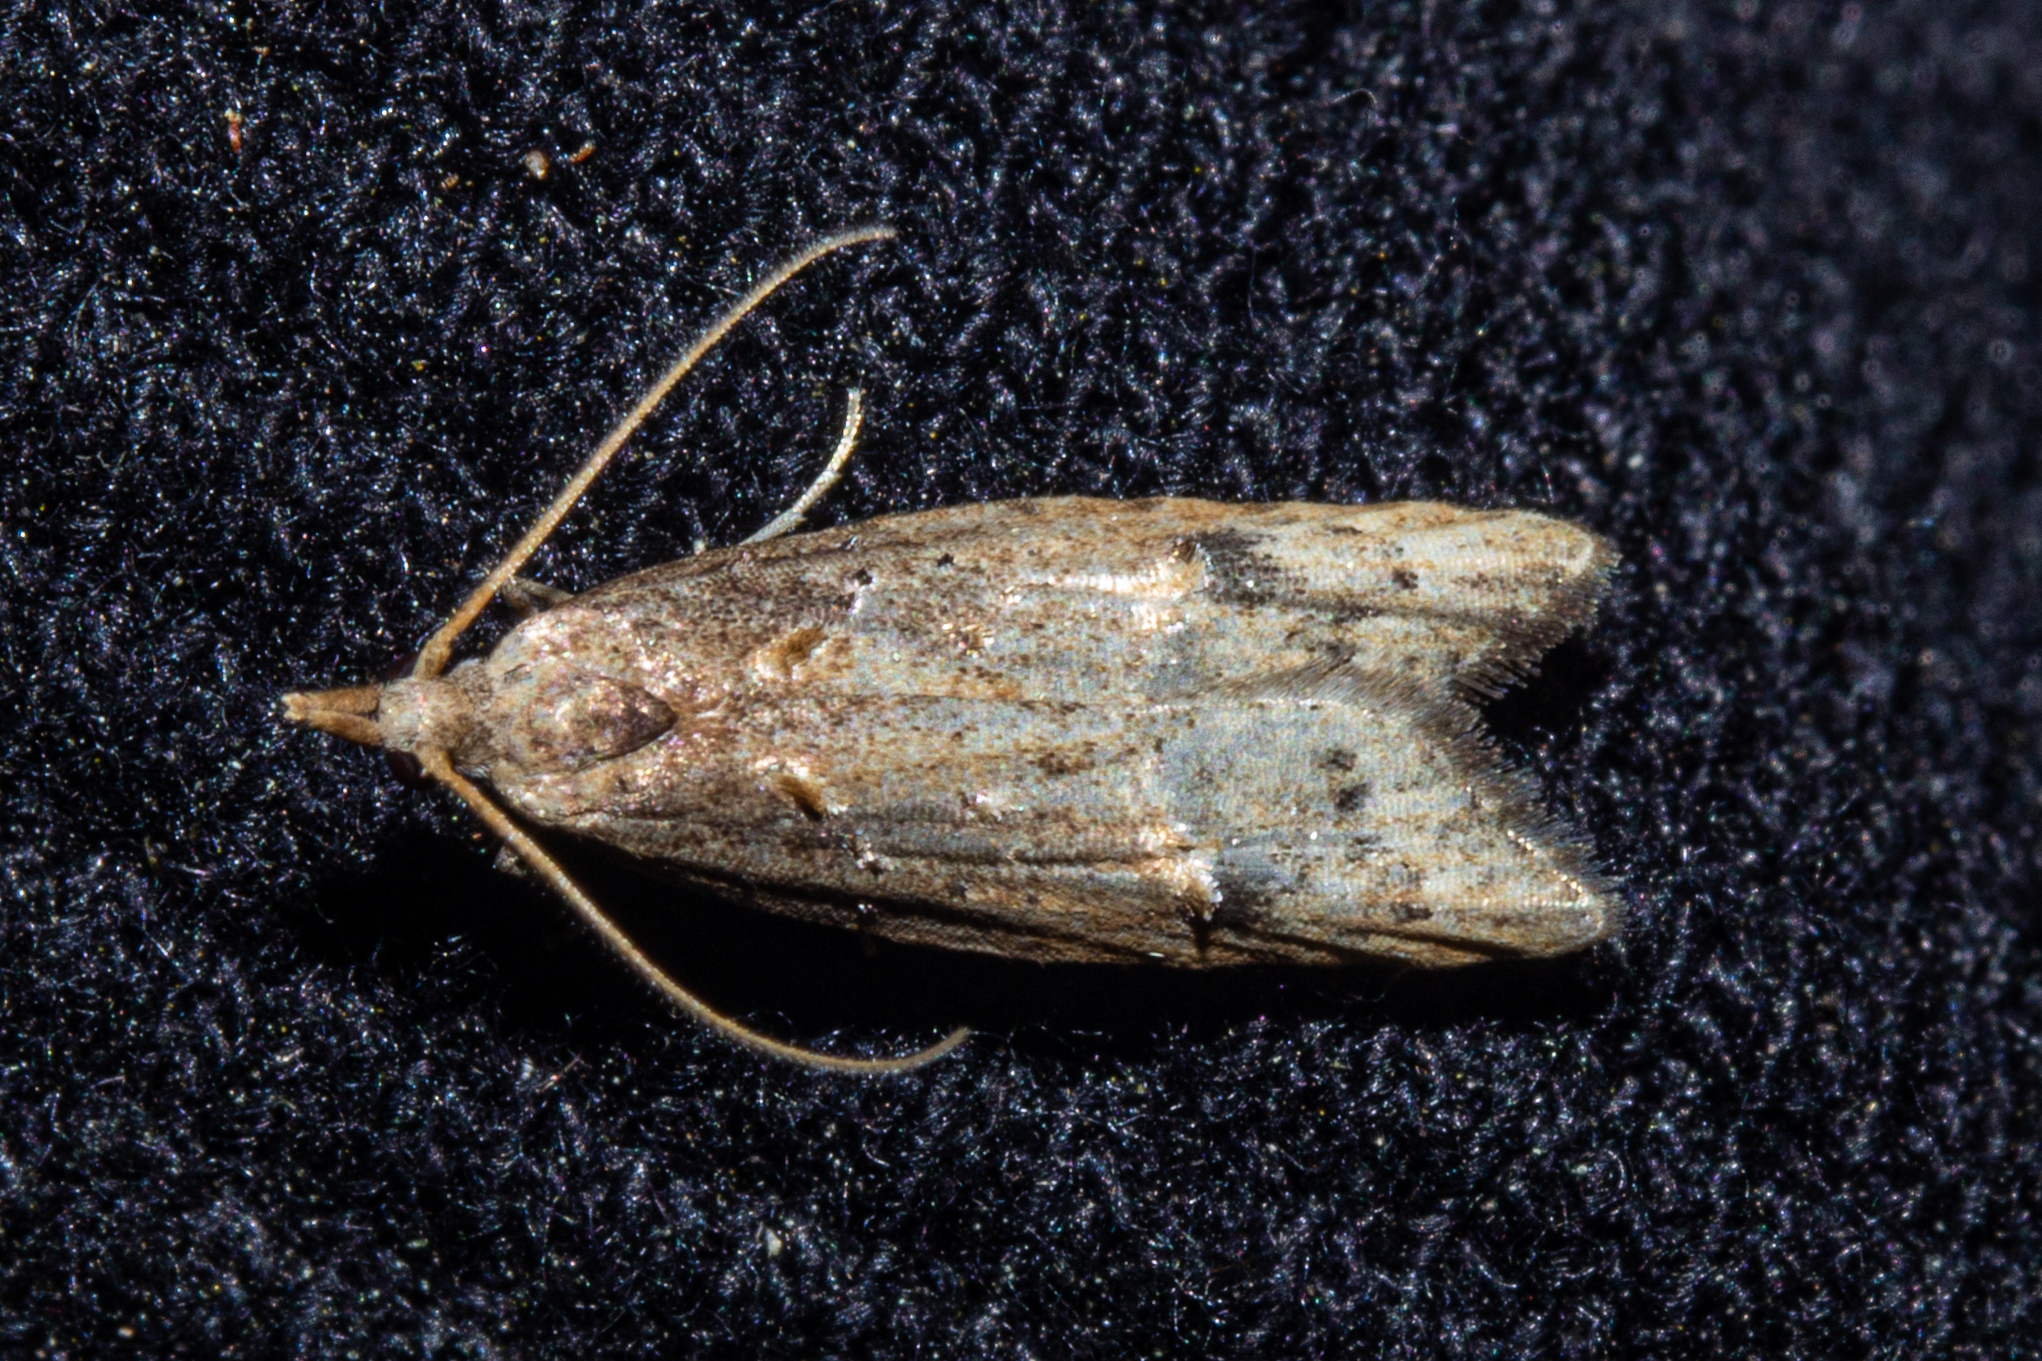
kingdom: Animalia
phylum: Arthropoda
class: Insecta
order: Lepidoptera
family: Carposinidae
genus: Carposina
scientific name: Carposina rubophaga
